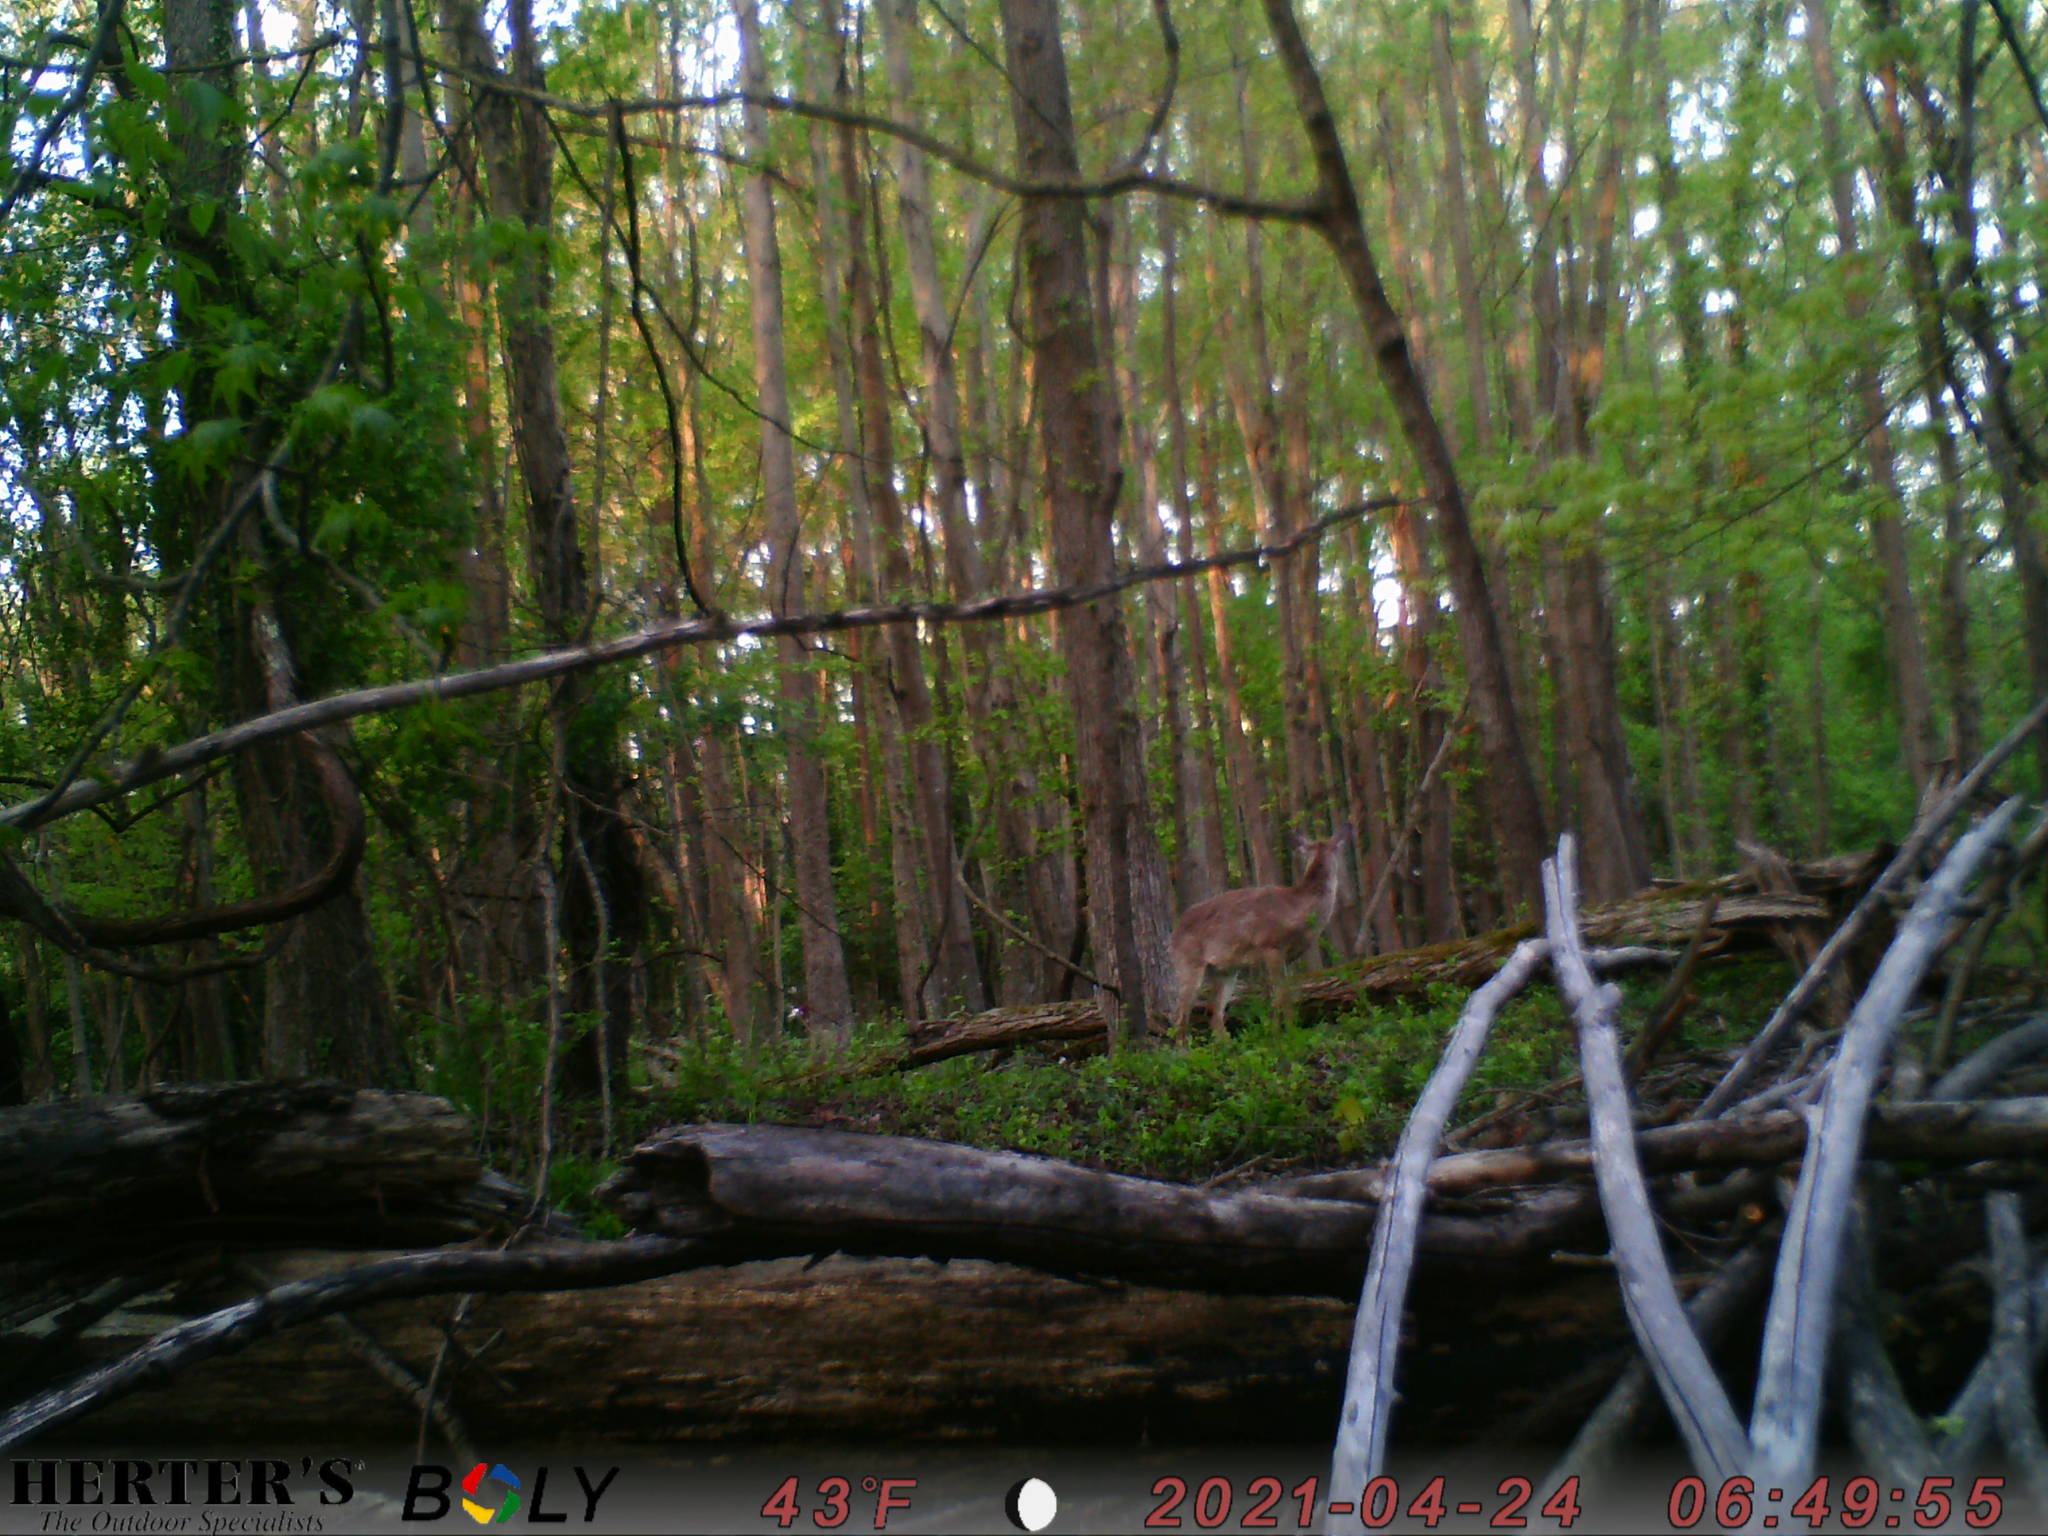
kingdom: Animalia
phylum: Chordata
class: Mammalia
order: Artiodactyla
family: Cervidae
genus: Odocoileus
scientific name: Odocoileus virginianus
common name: White-tailed deer
